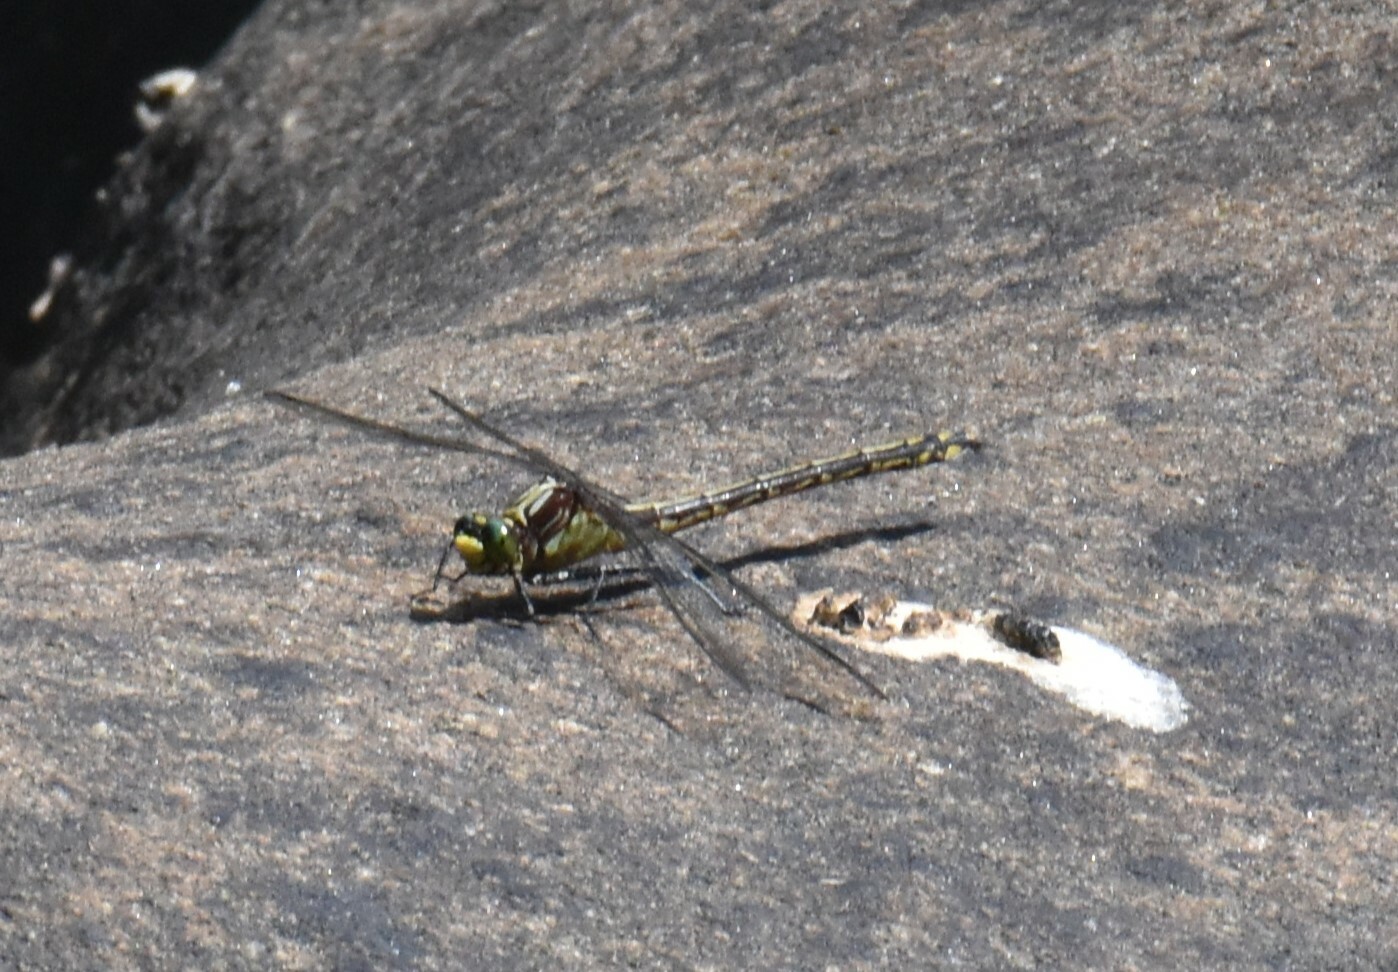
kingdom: Animalia
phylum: Arthropoda
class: Insecta
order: Odonata
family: Gomphidae
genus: Dromogomphus
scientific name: Dromogomphus spinosus
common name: Black-shouldered spinyleg
